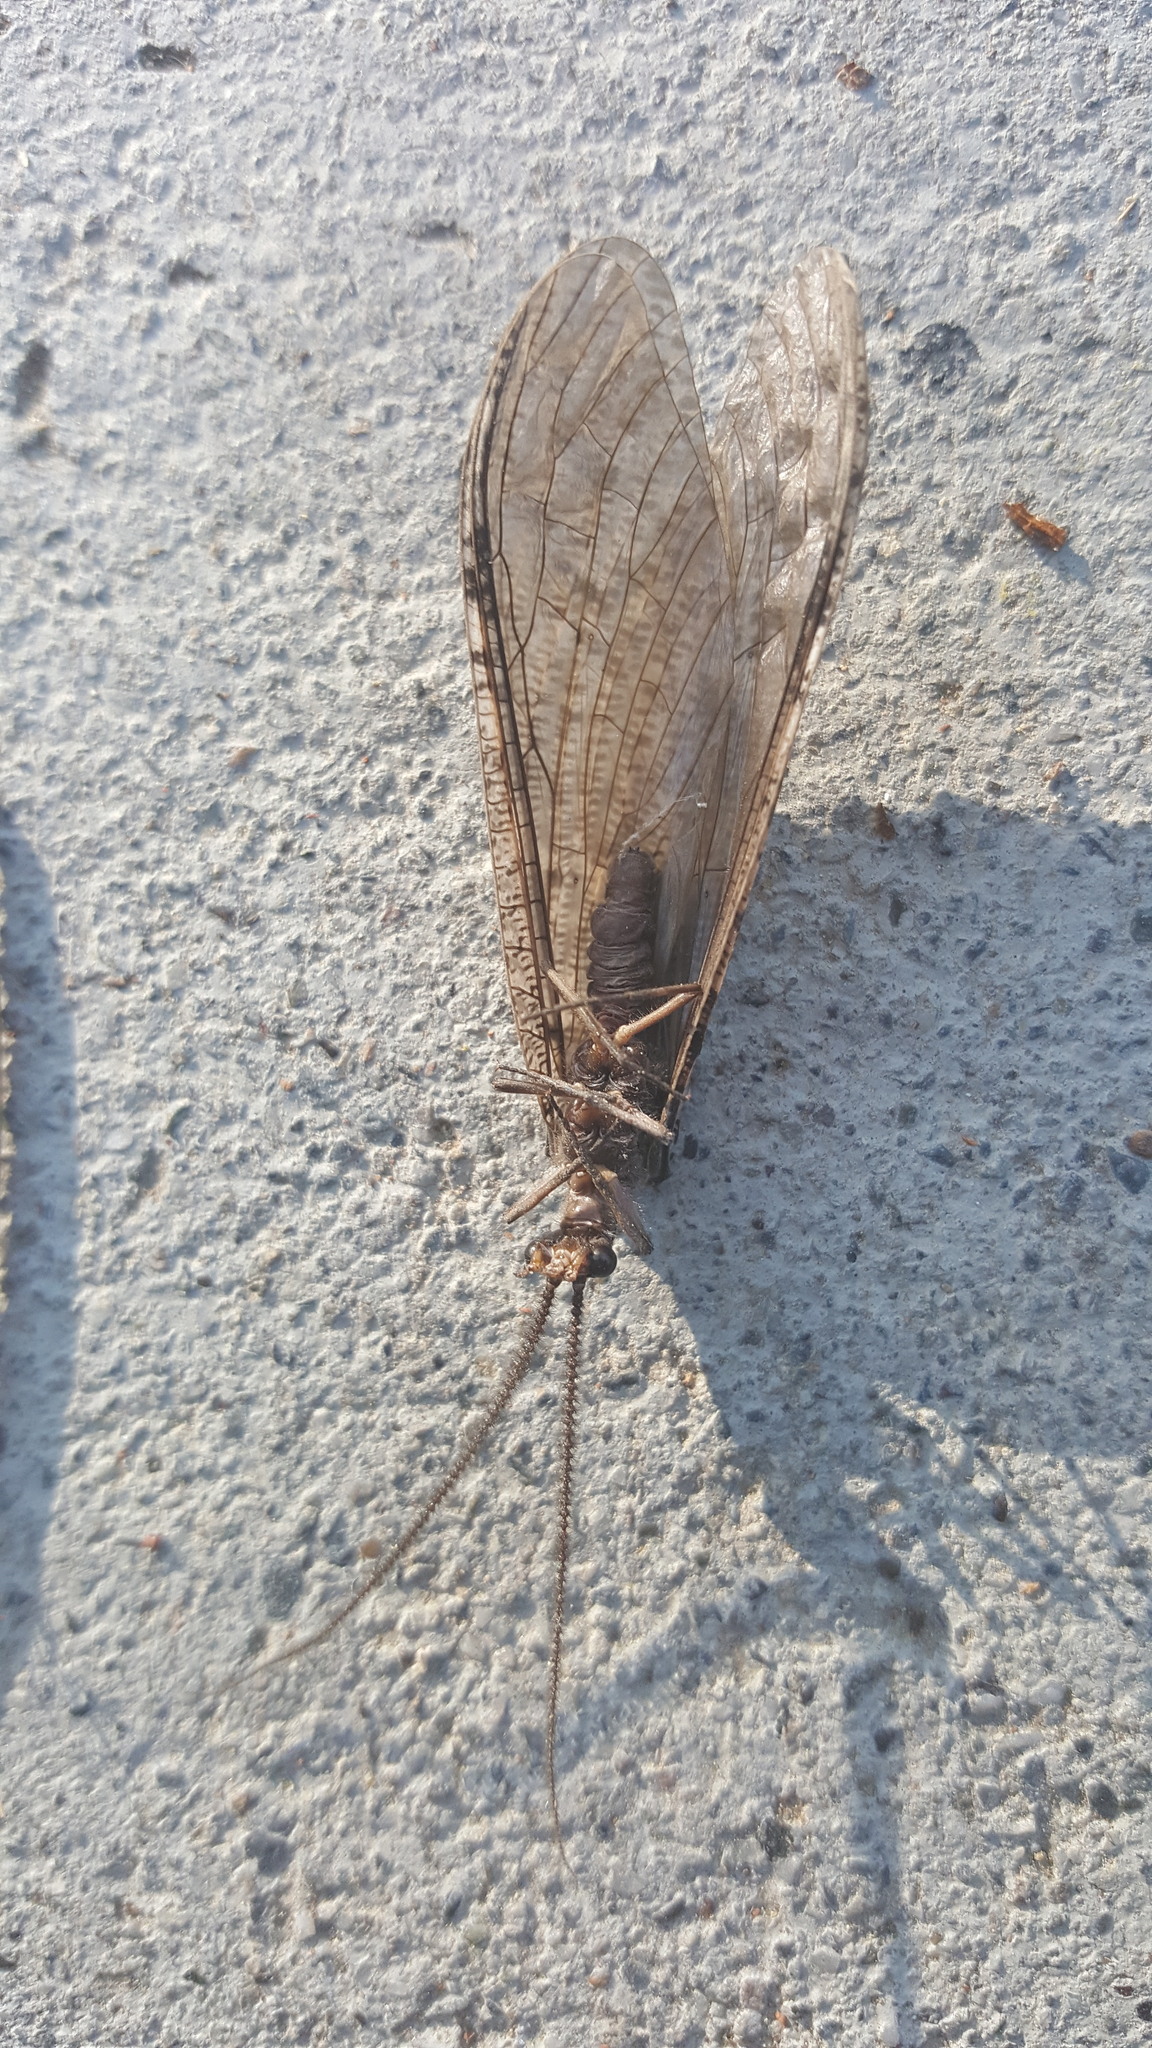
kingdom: Animalia
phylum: Arthropoda
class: Insecta
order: Megaloptera
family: Corydalidae
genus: Neohermes
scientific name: Neohermes filicornis
